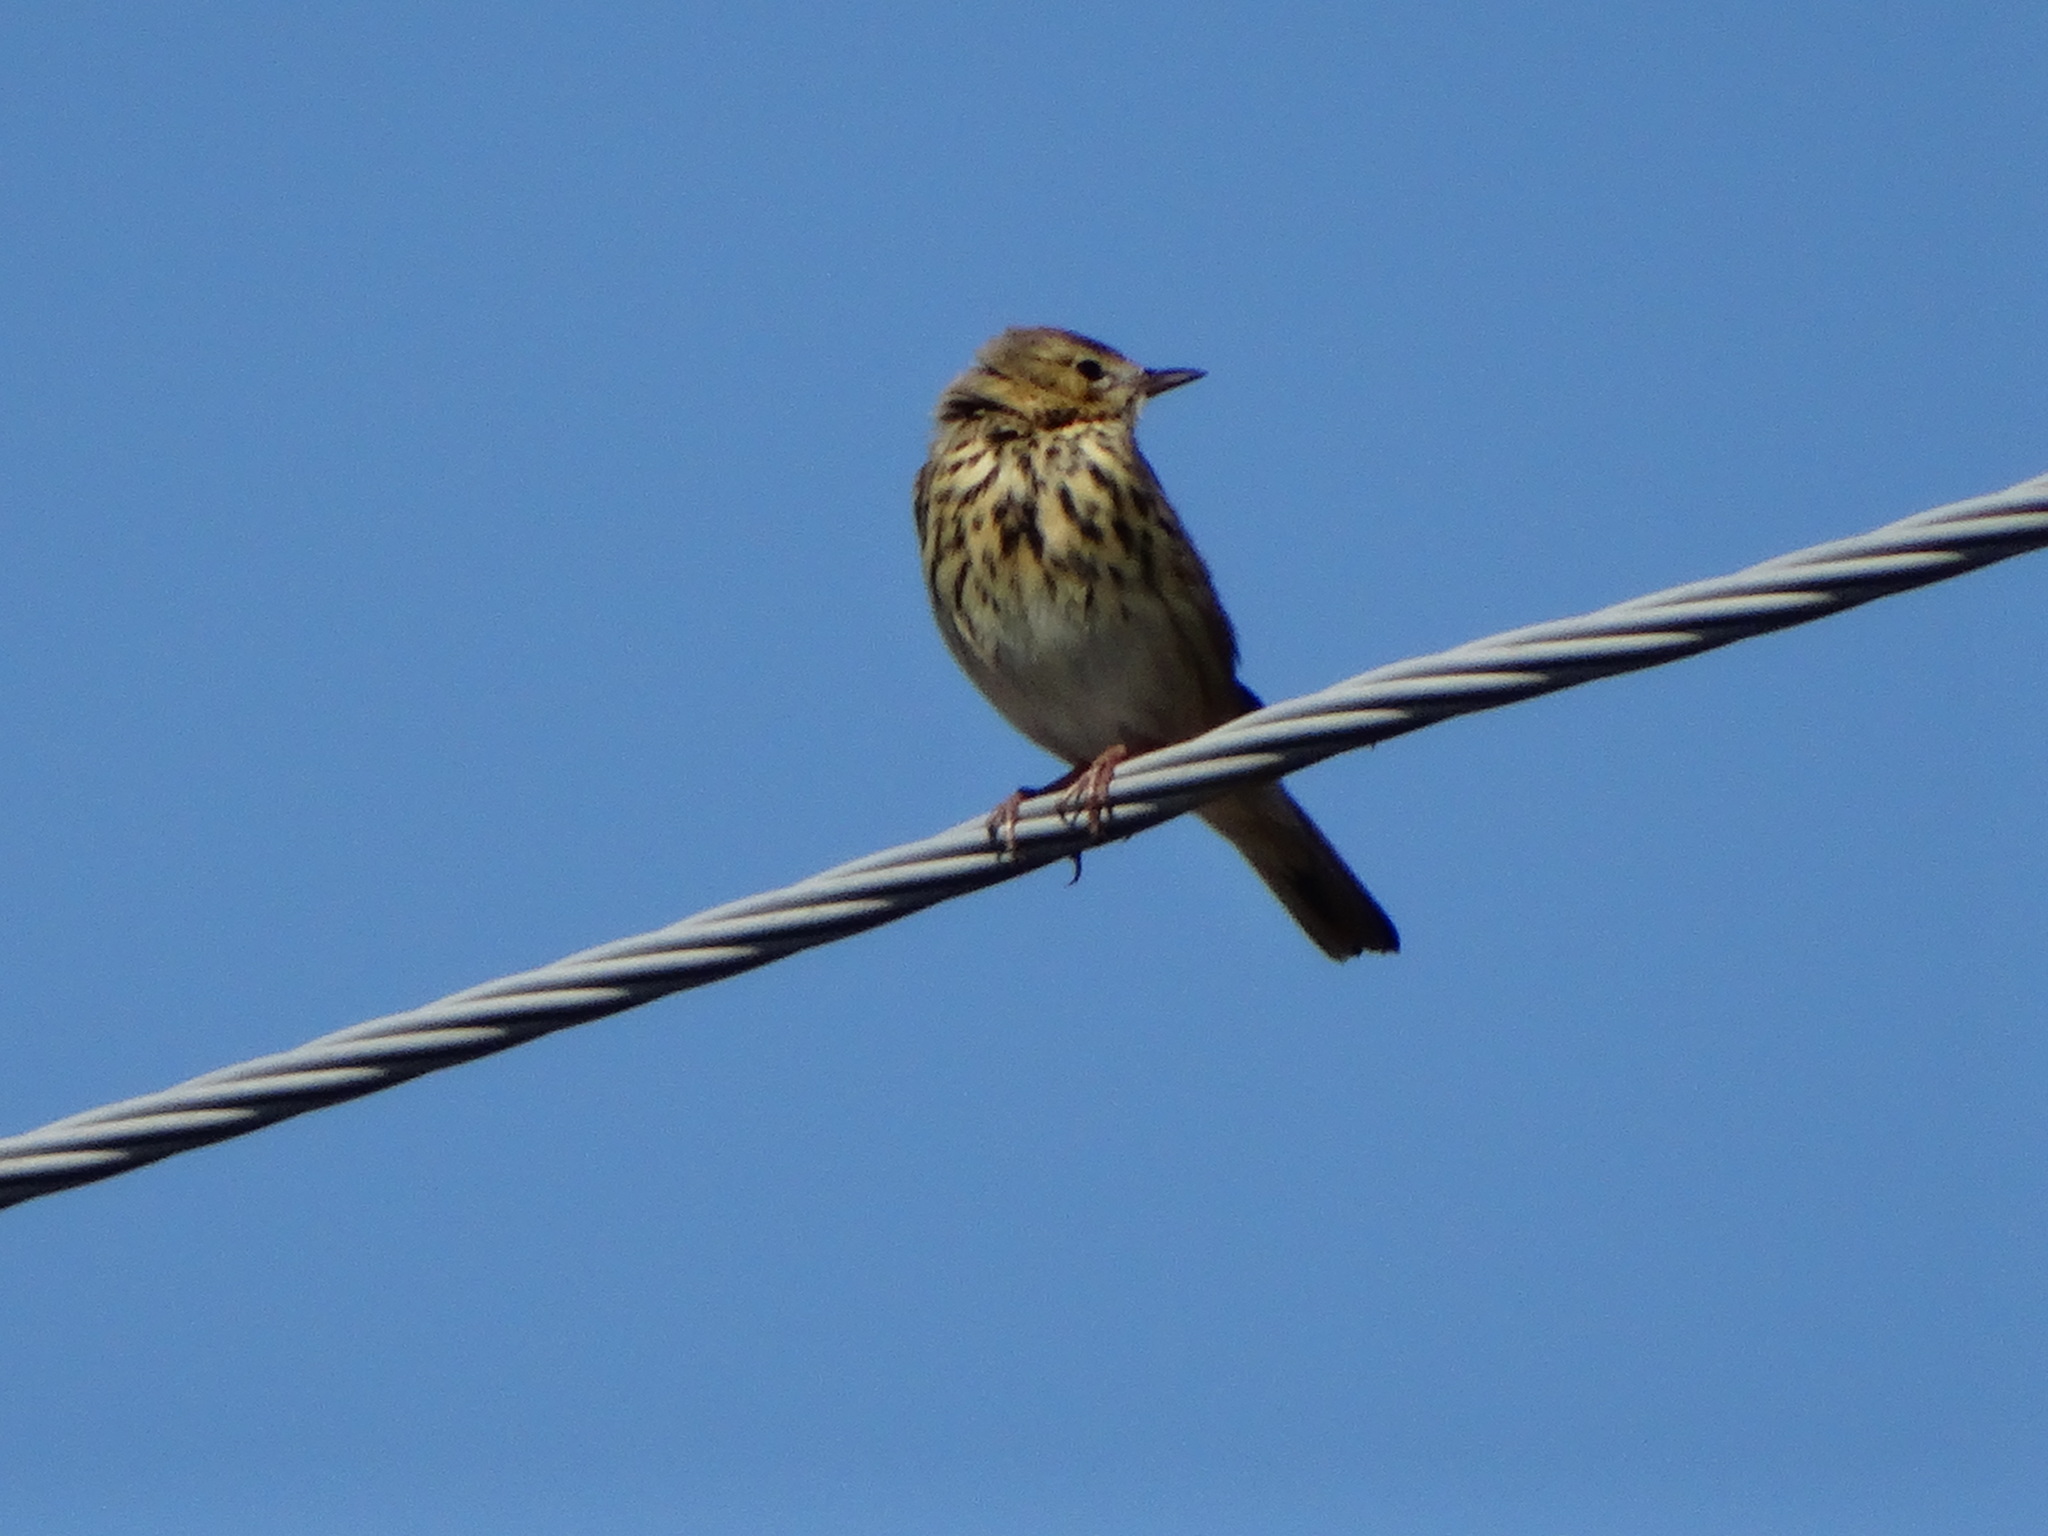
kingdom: Animalia
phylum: Chordata
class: Aves
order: Passeriformes
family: Motacillidae
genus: Anthus
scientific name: Anthus trivialis
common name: Tree pipit
